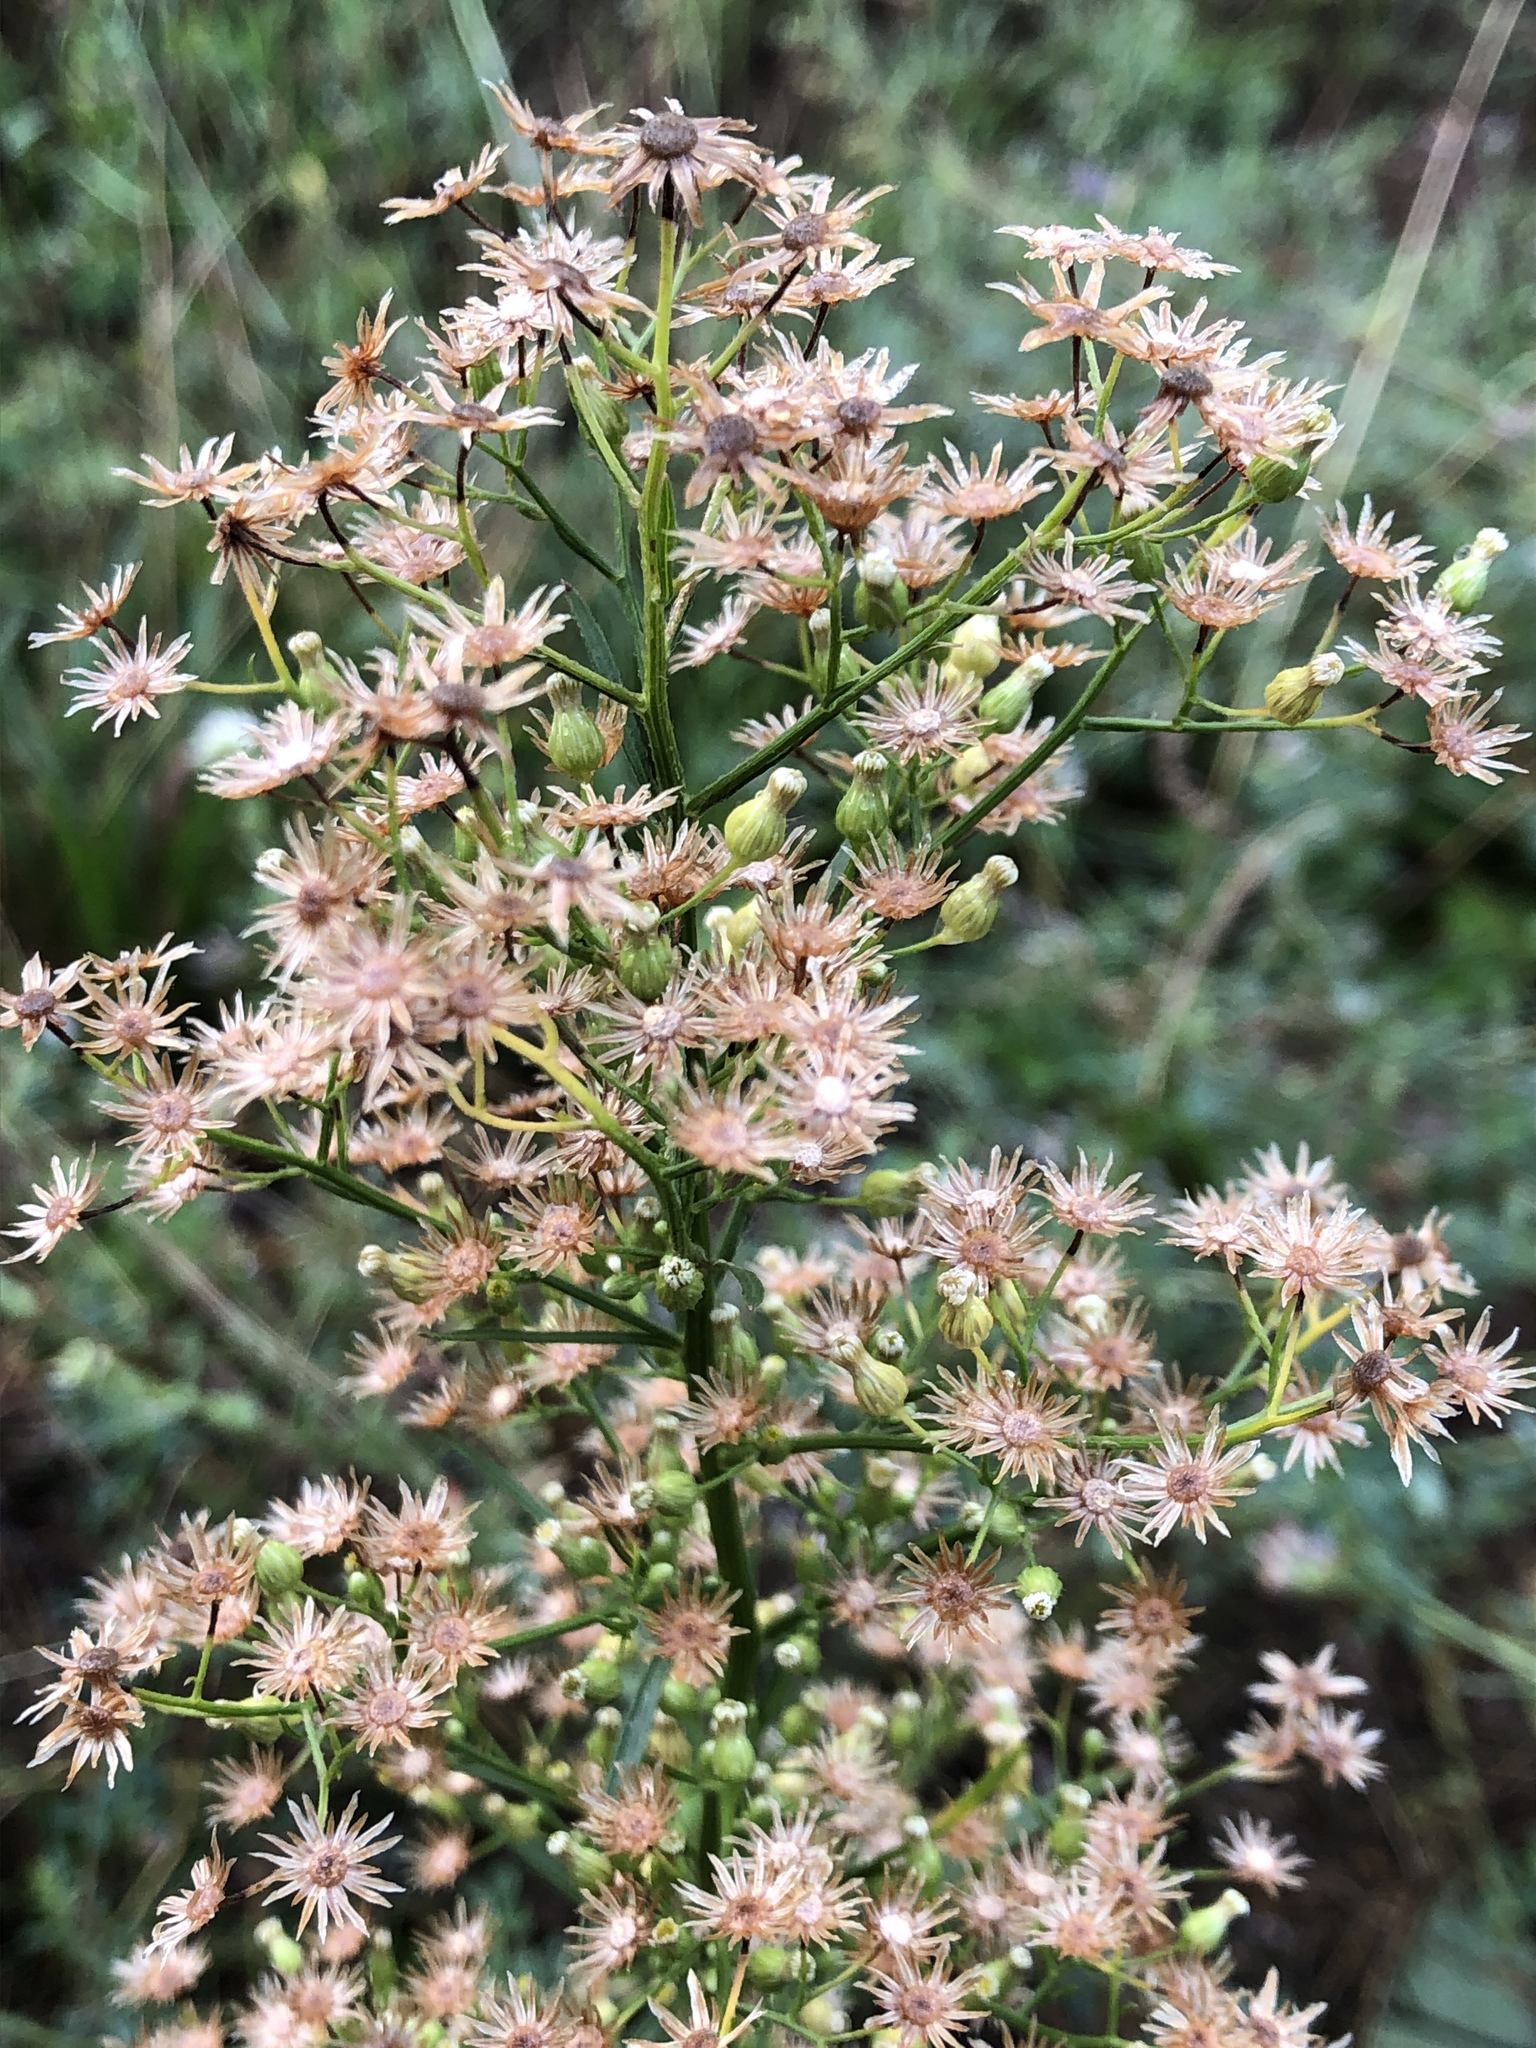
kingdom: Plantae
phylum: Tracheophyta
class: Magnoliopsida
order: Asterales
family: Asteraceae
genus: Erigeron
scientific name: Erigeron canadensis
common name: Canadian fleabane
